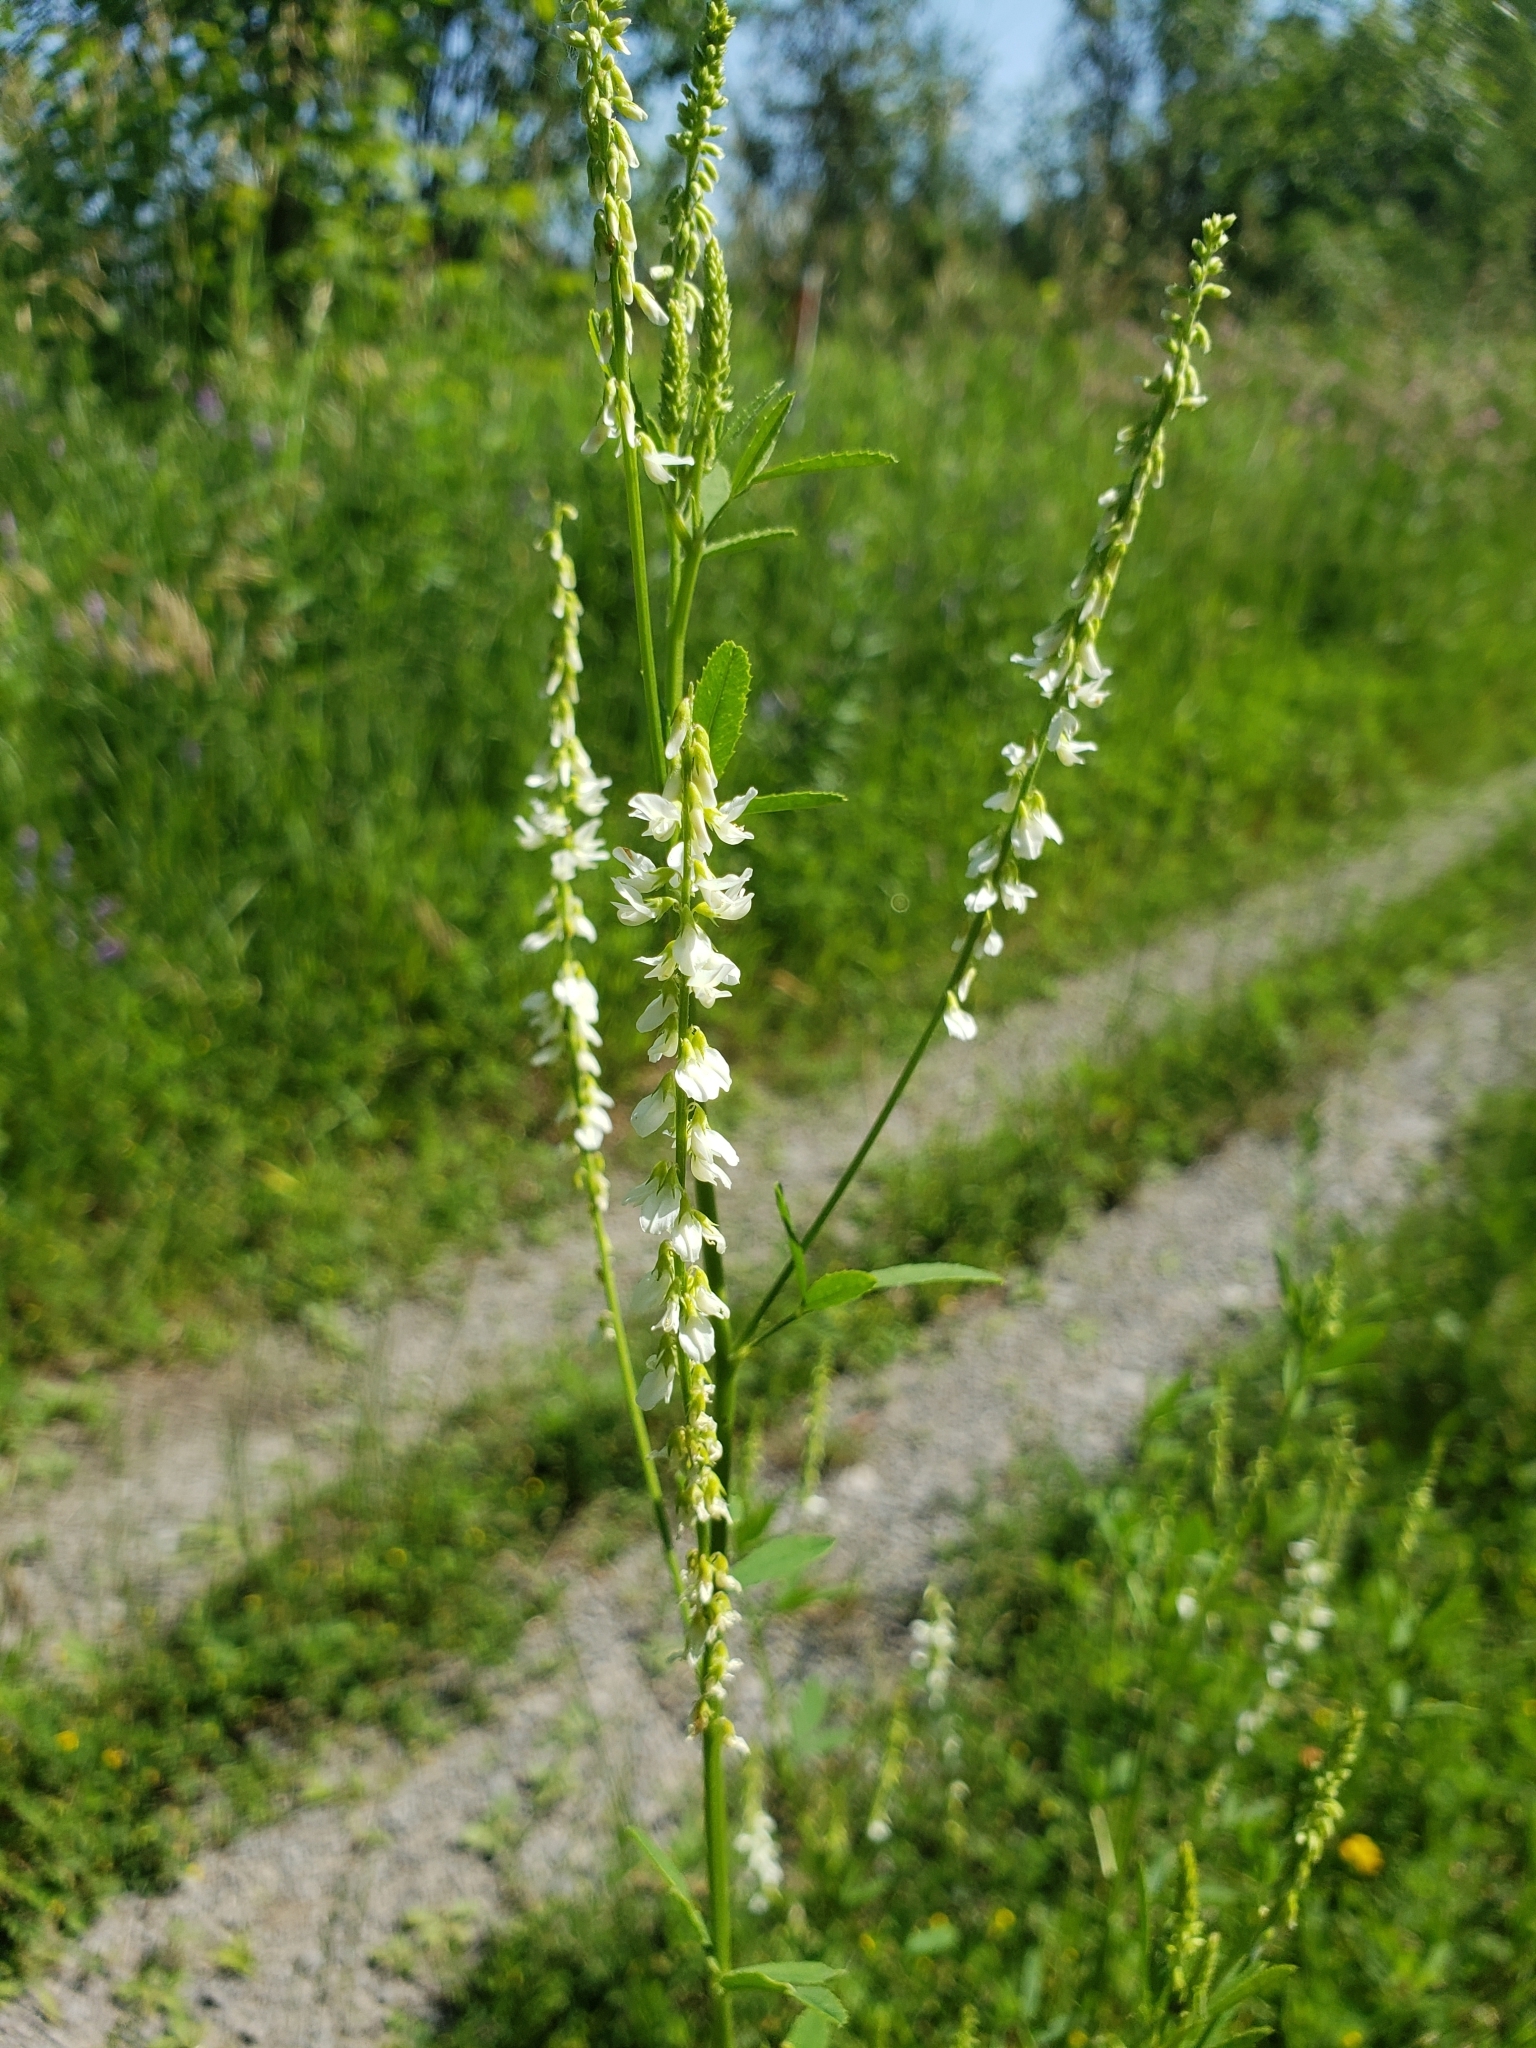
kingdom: Plantae
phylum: Tracheophyta
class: Magnoliopsida
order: Fabales
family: Fabaceae
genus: Melilotus
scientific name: Melilotus albus
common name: White melilot
